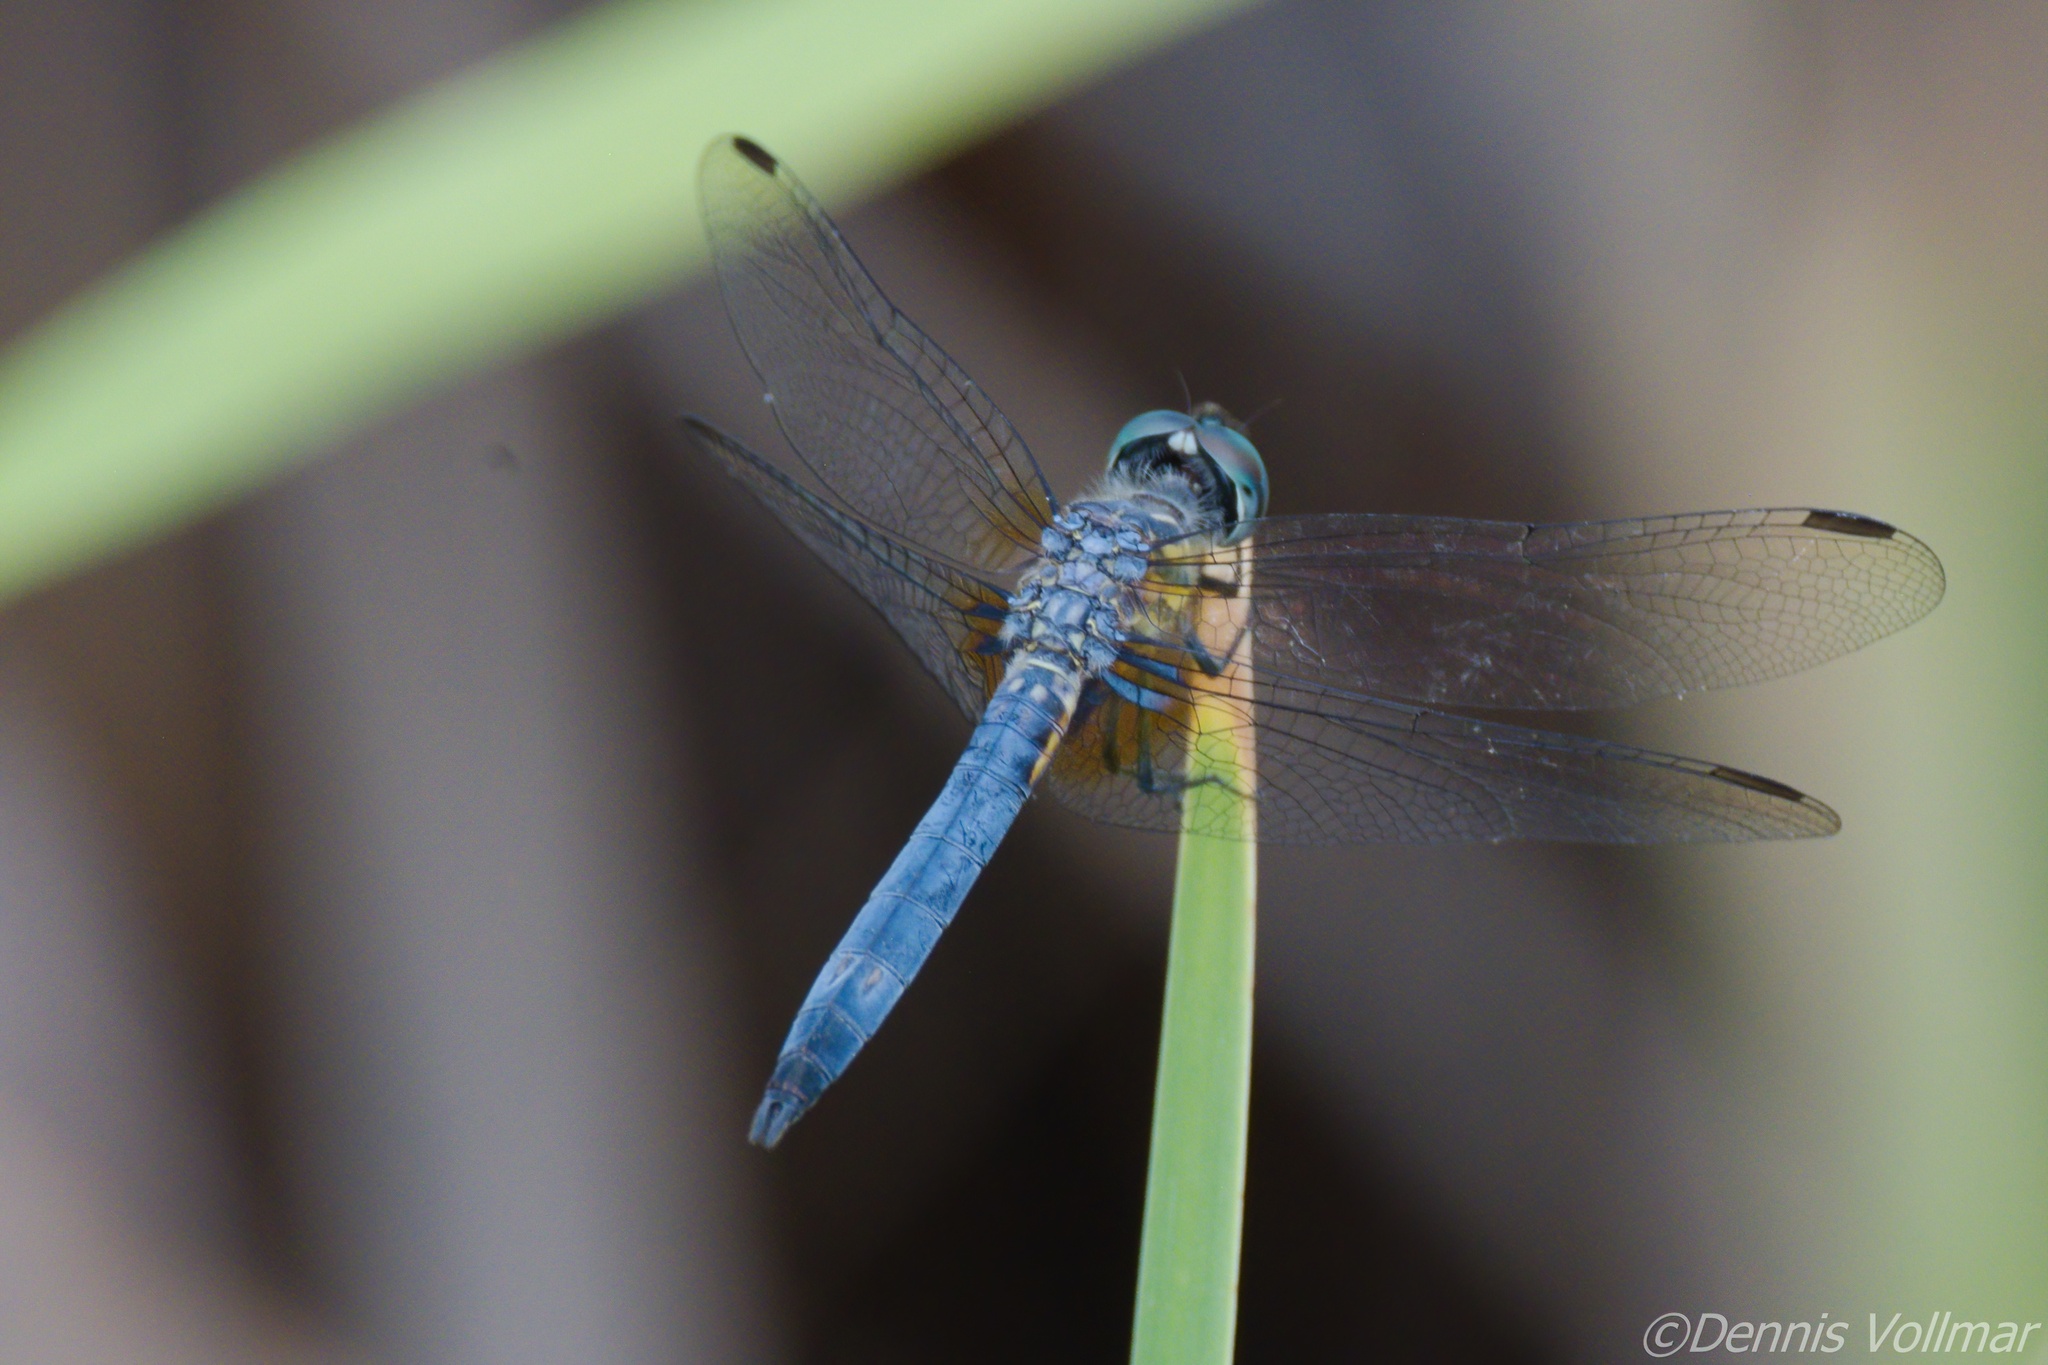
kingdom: Animalia
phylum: Arthropoda
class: Insecta
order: Odonata
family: Libellulidae
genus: Pachydiplax
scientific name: Pachydiplax longipennis
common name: Blue dasher
